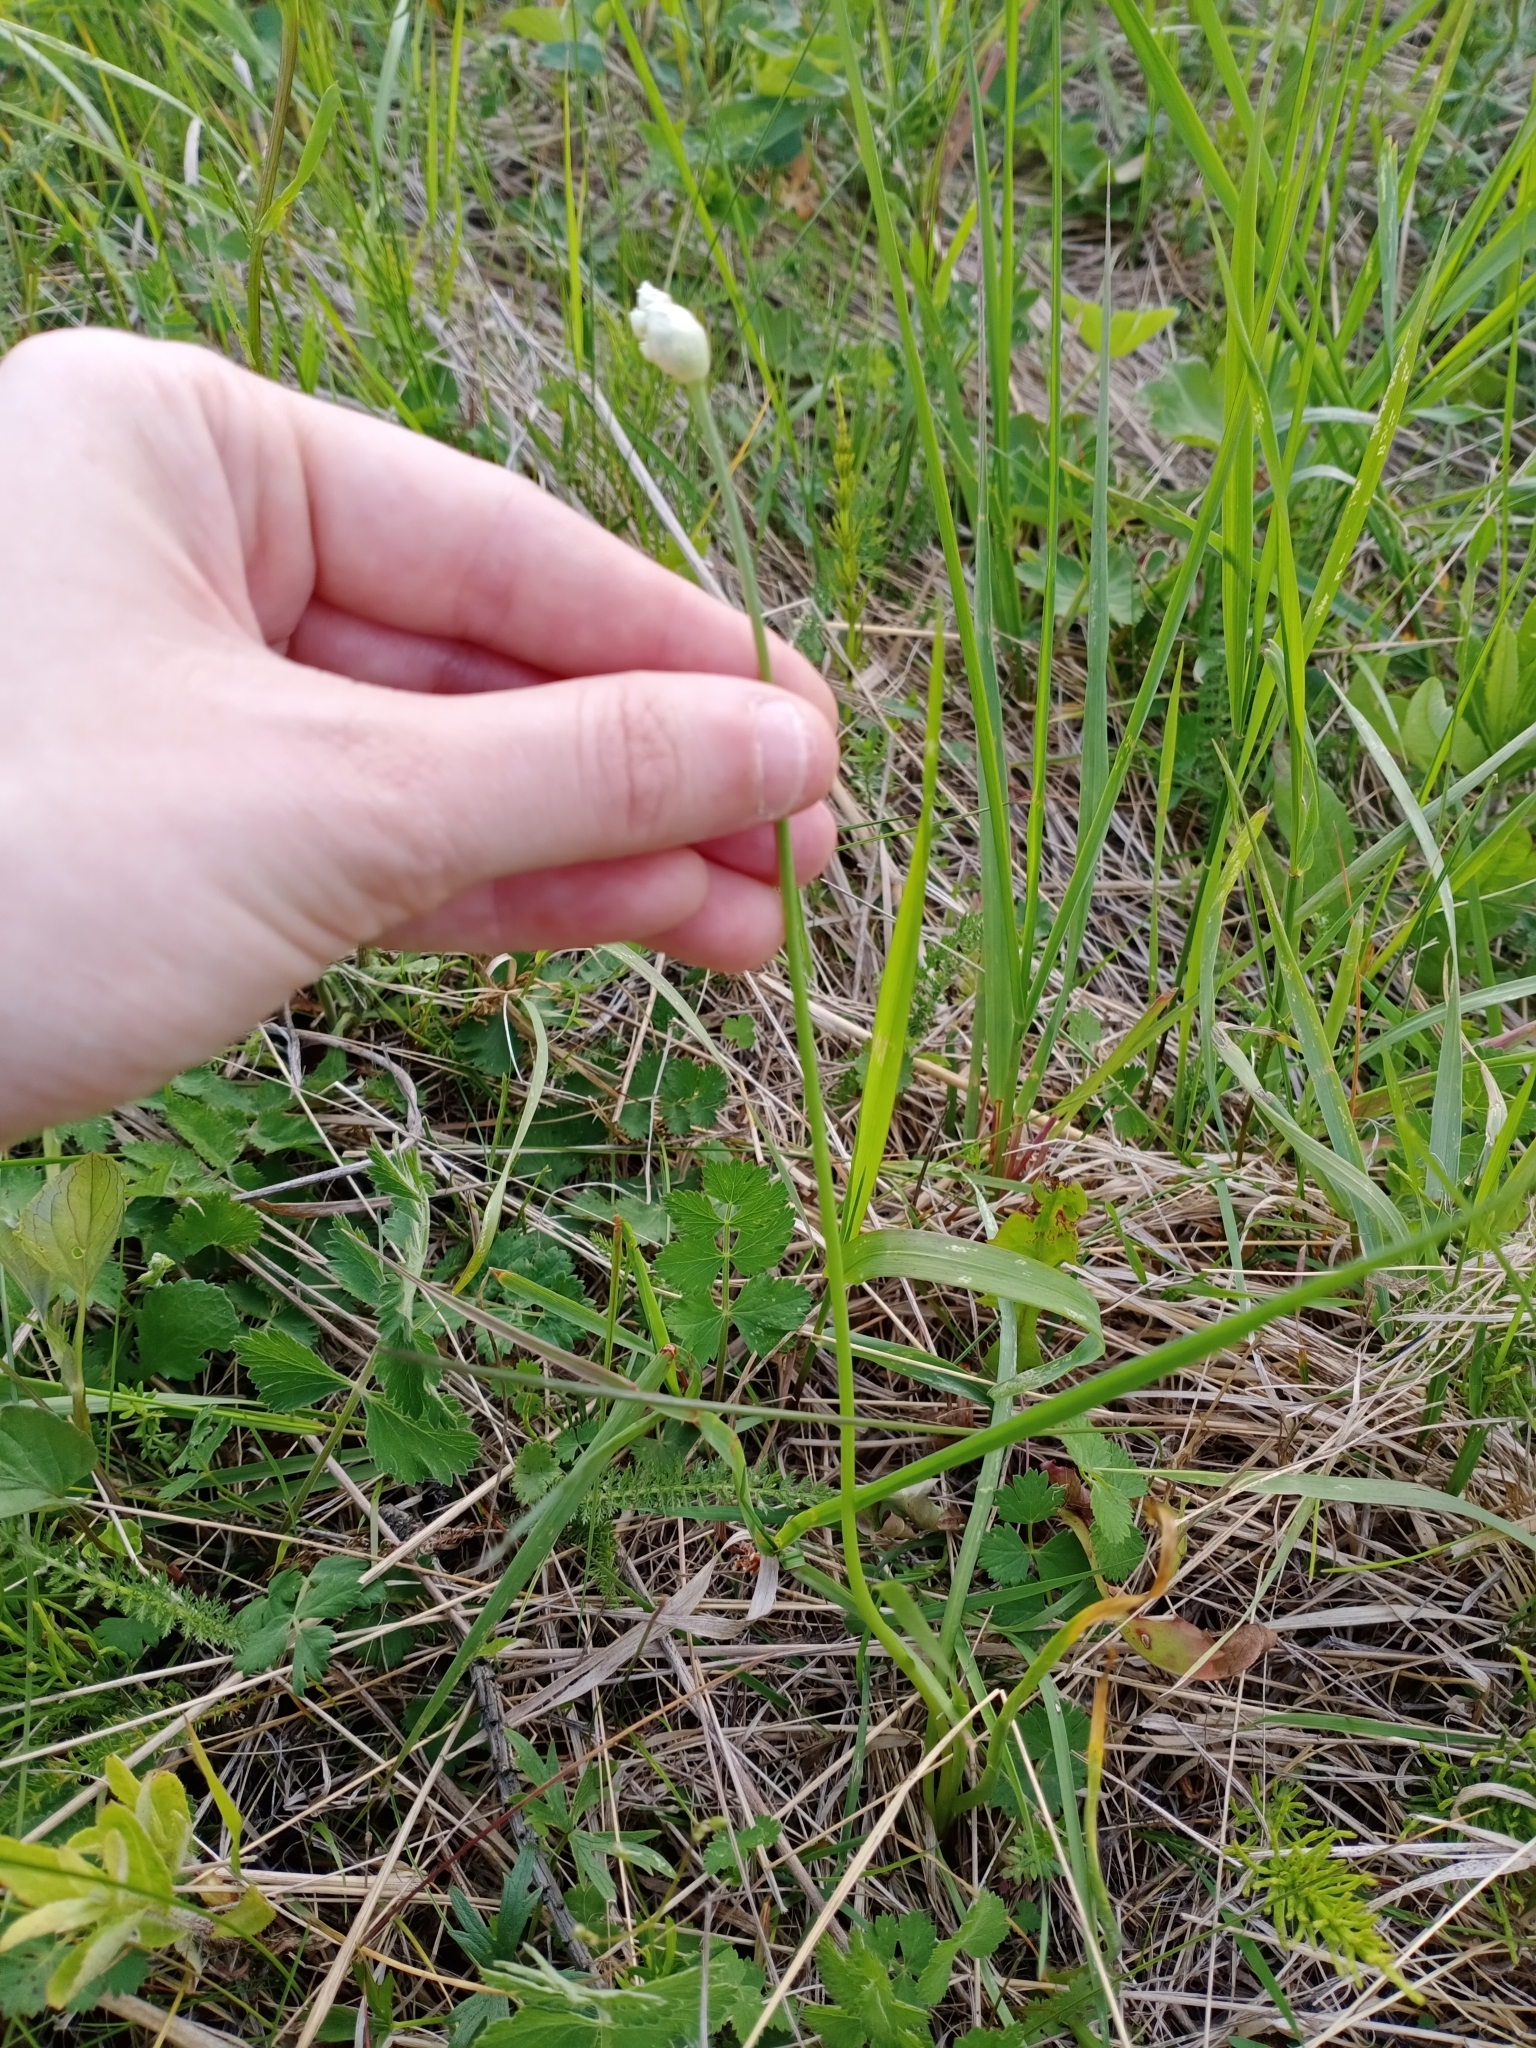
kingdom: Plantae
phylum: Tracheophyta
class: Liliopsida
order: Asparagales
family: Amaryllidaceae
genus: Allium
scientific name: Allium angulosum
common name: Mouse garlic
